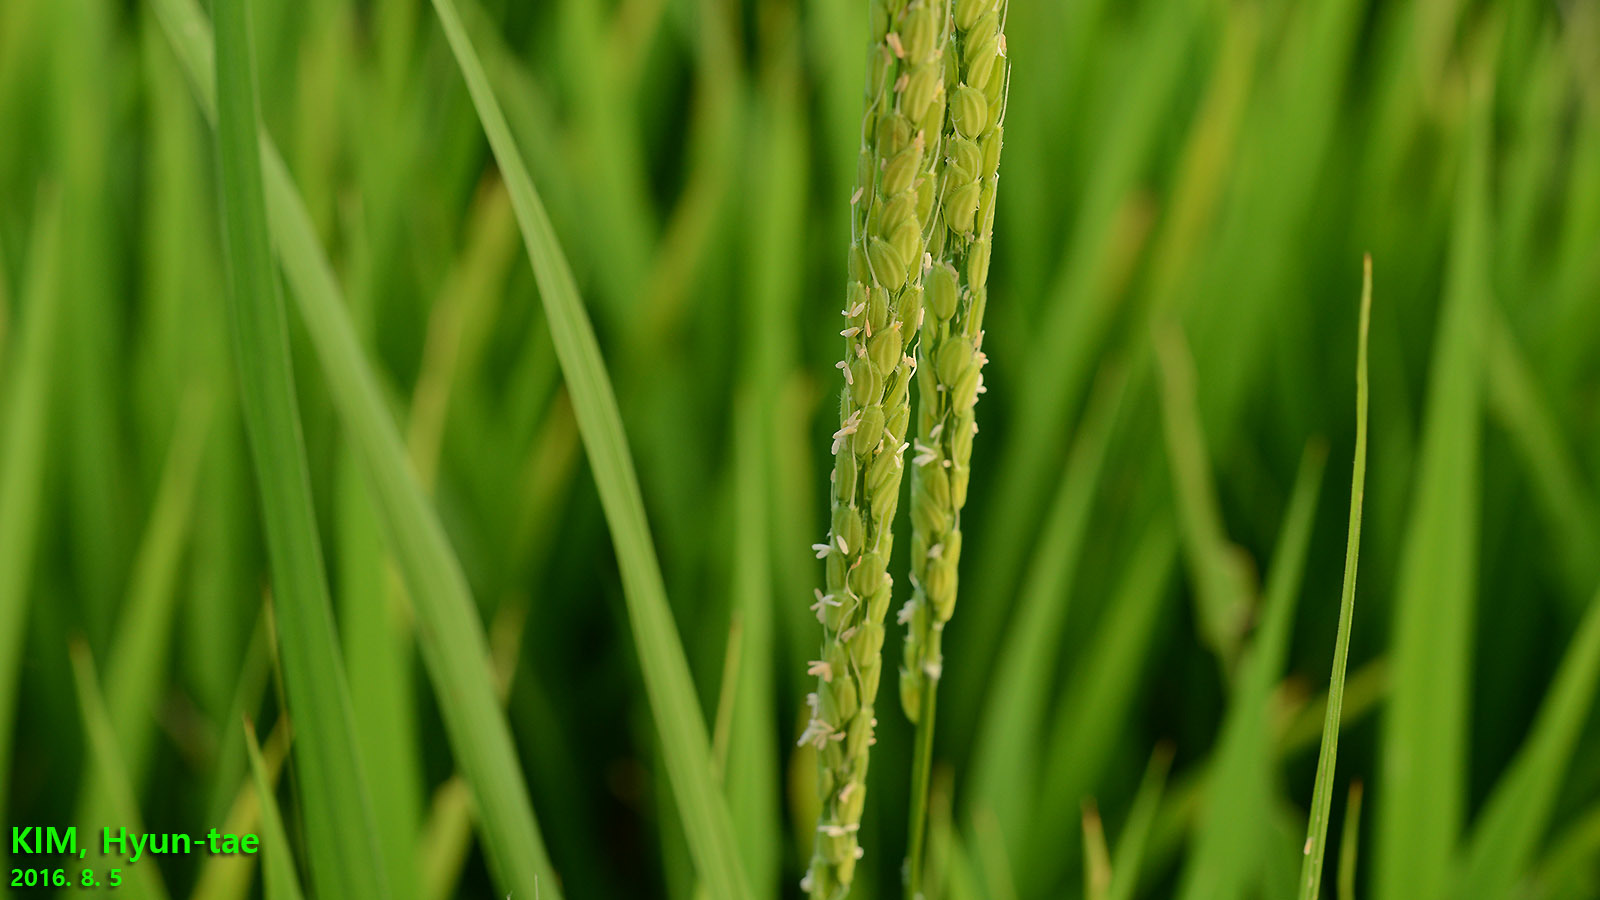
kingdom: Plantae
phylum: Tracheophyta
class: Liliopsida
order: Poales
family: Poaceae
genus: Oryza
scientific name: Oryza sativa
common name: Rice
